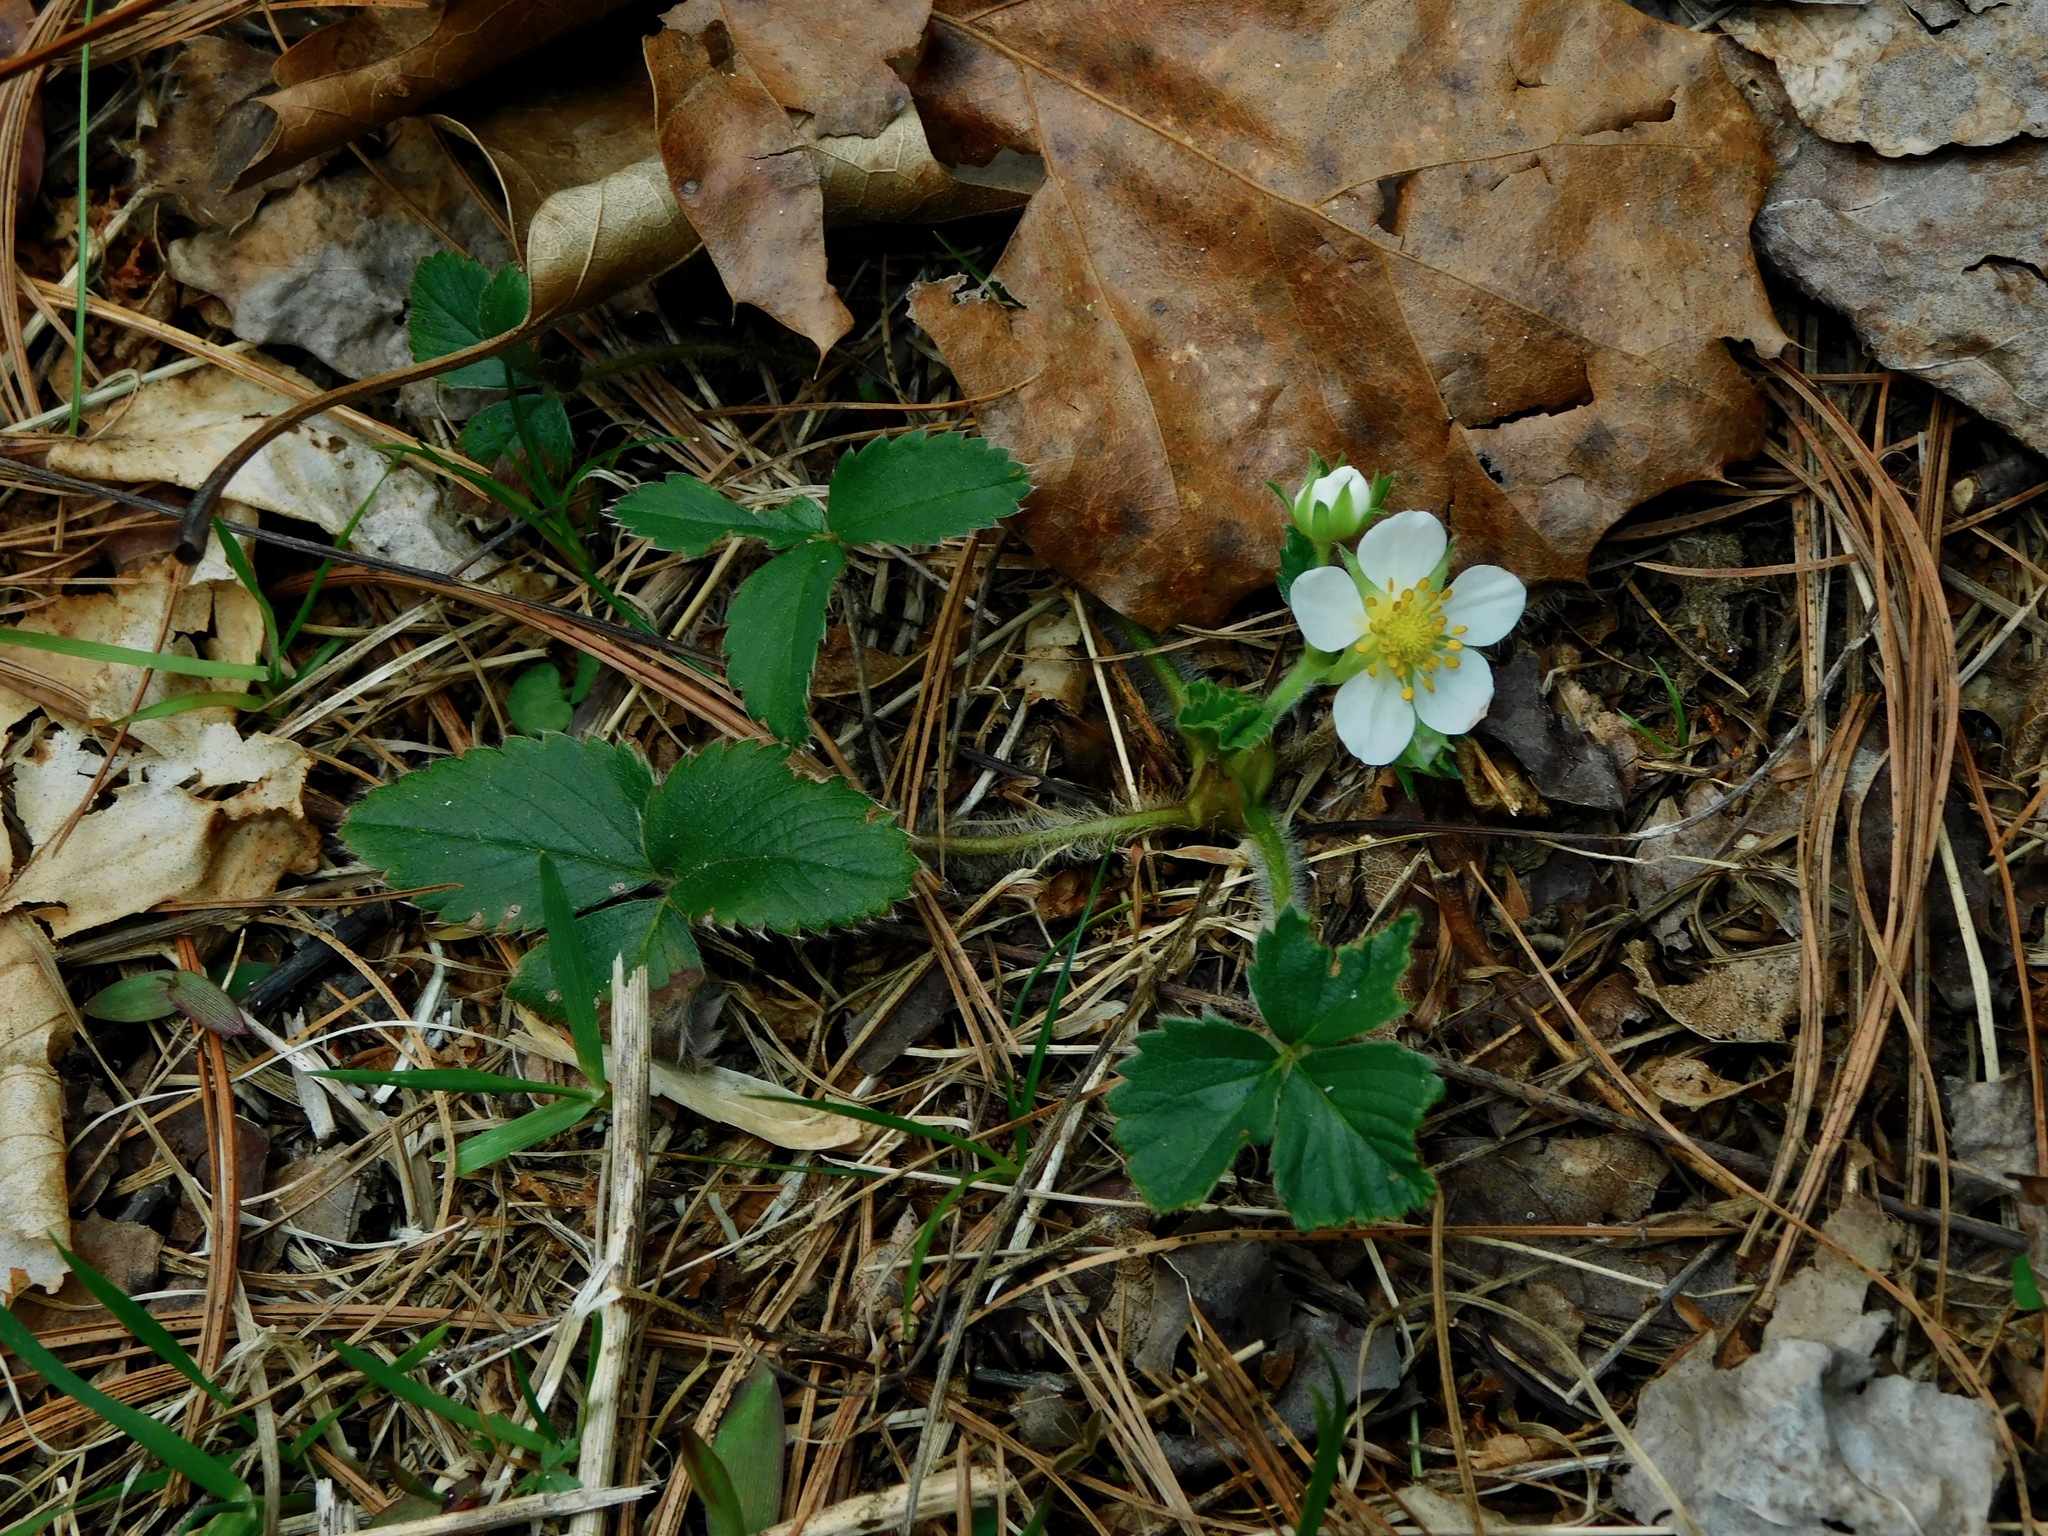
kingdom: Plantae
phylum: Tracheophyta
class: Magnoliopsida
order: Rosales
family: Rosaceae
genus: Fragaria
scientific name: Fragaria virginiana
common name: Thickleaved wild strawberry
